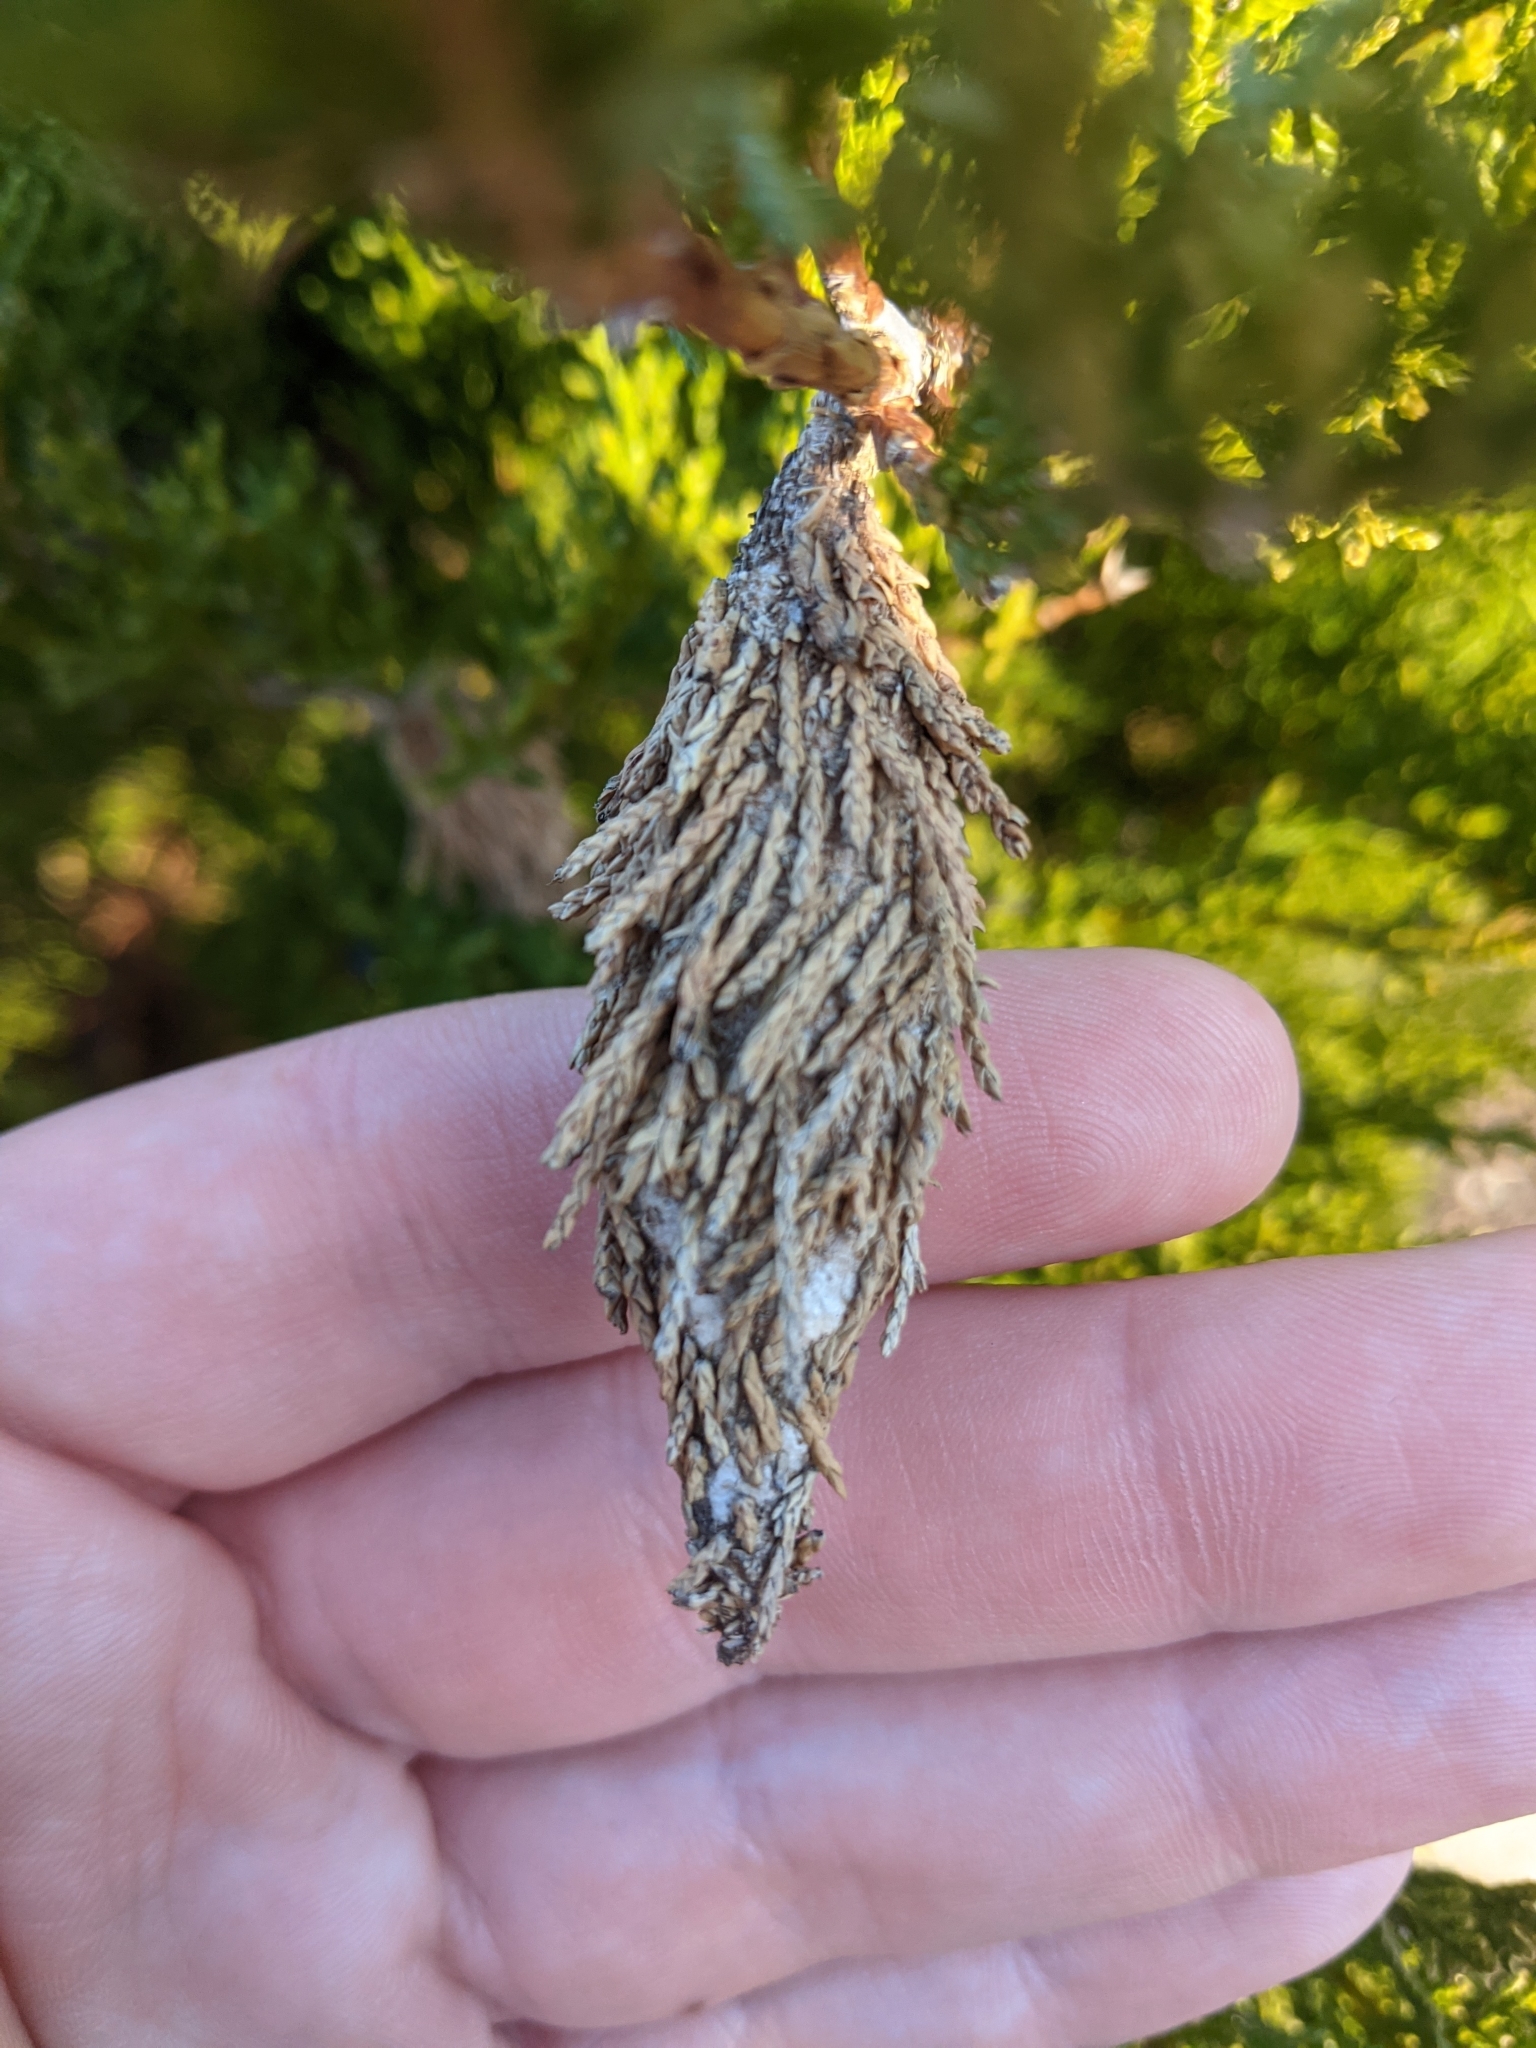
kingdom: Animalia
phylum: Arthropoda
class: Insecta
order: Lepidoptera
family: Psychidae
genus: Thyridopteryx
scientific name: Thyridopteryx ephemeraeformis
